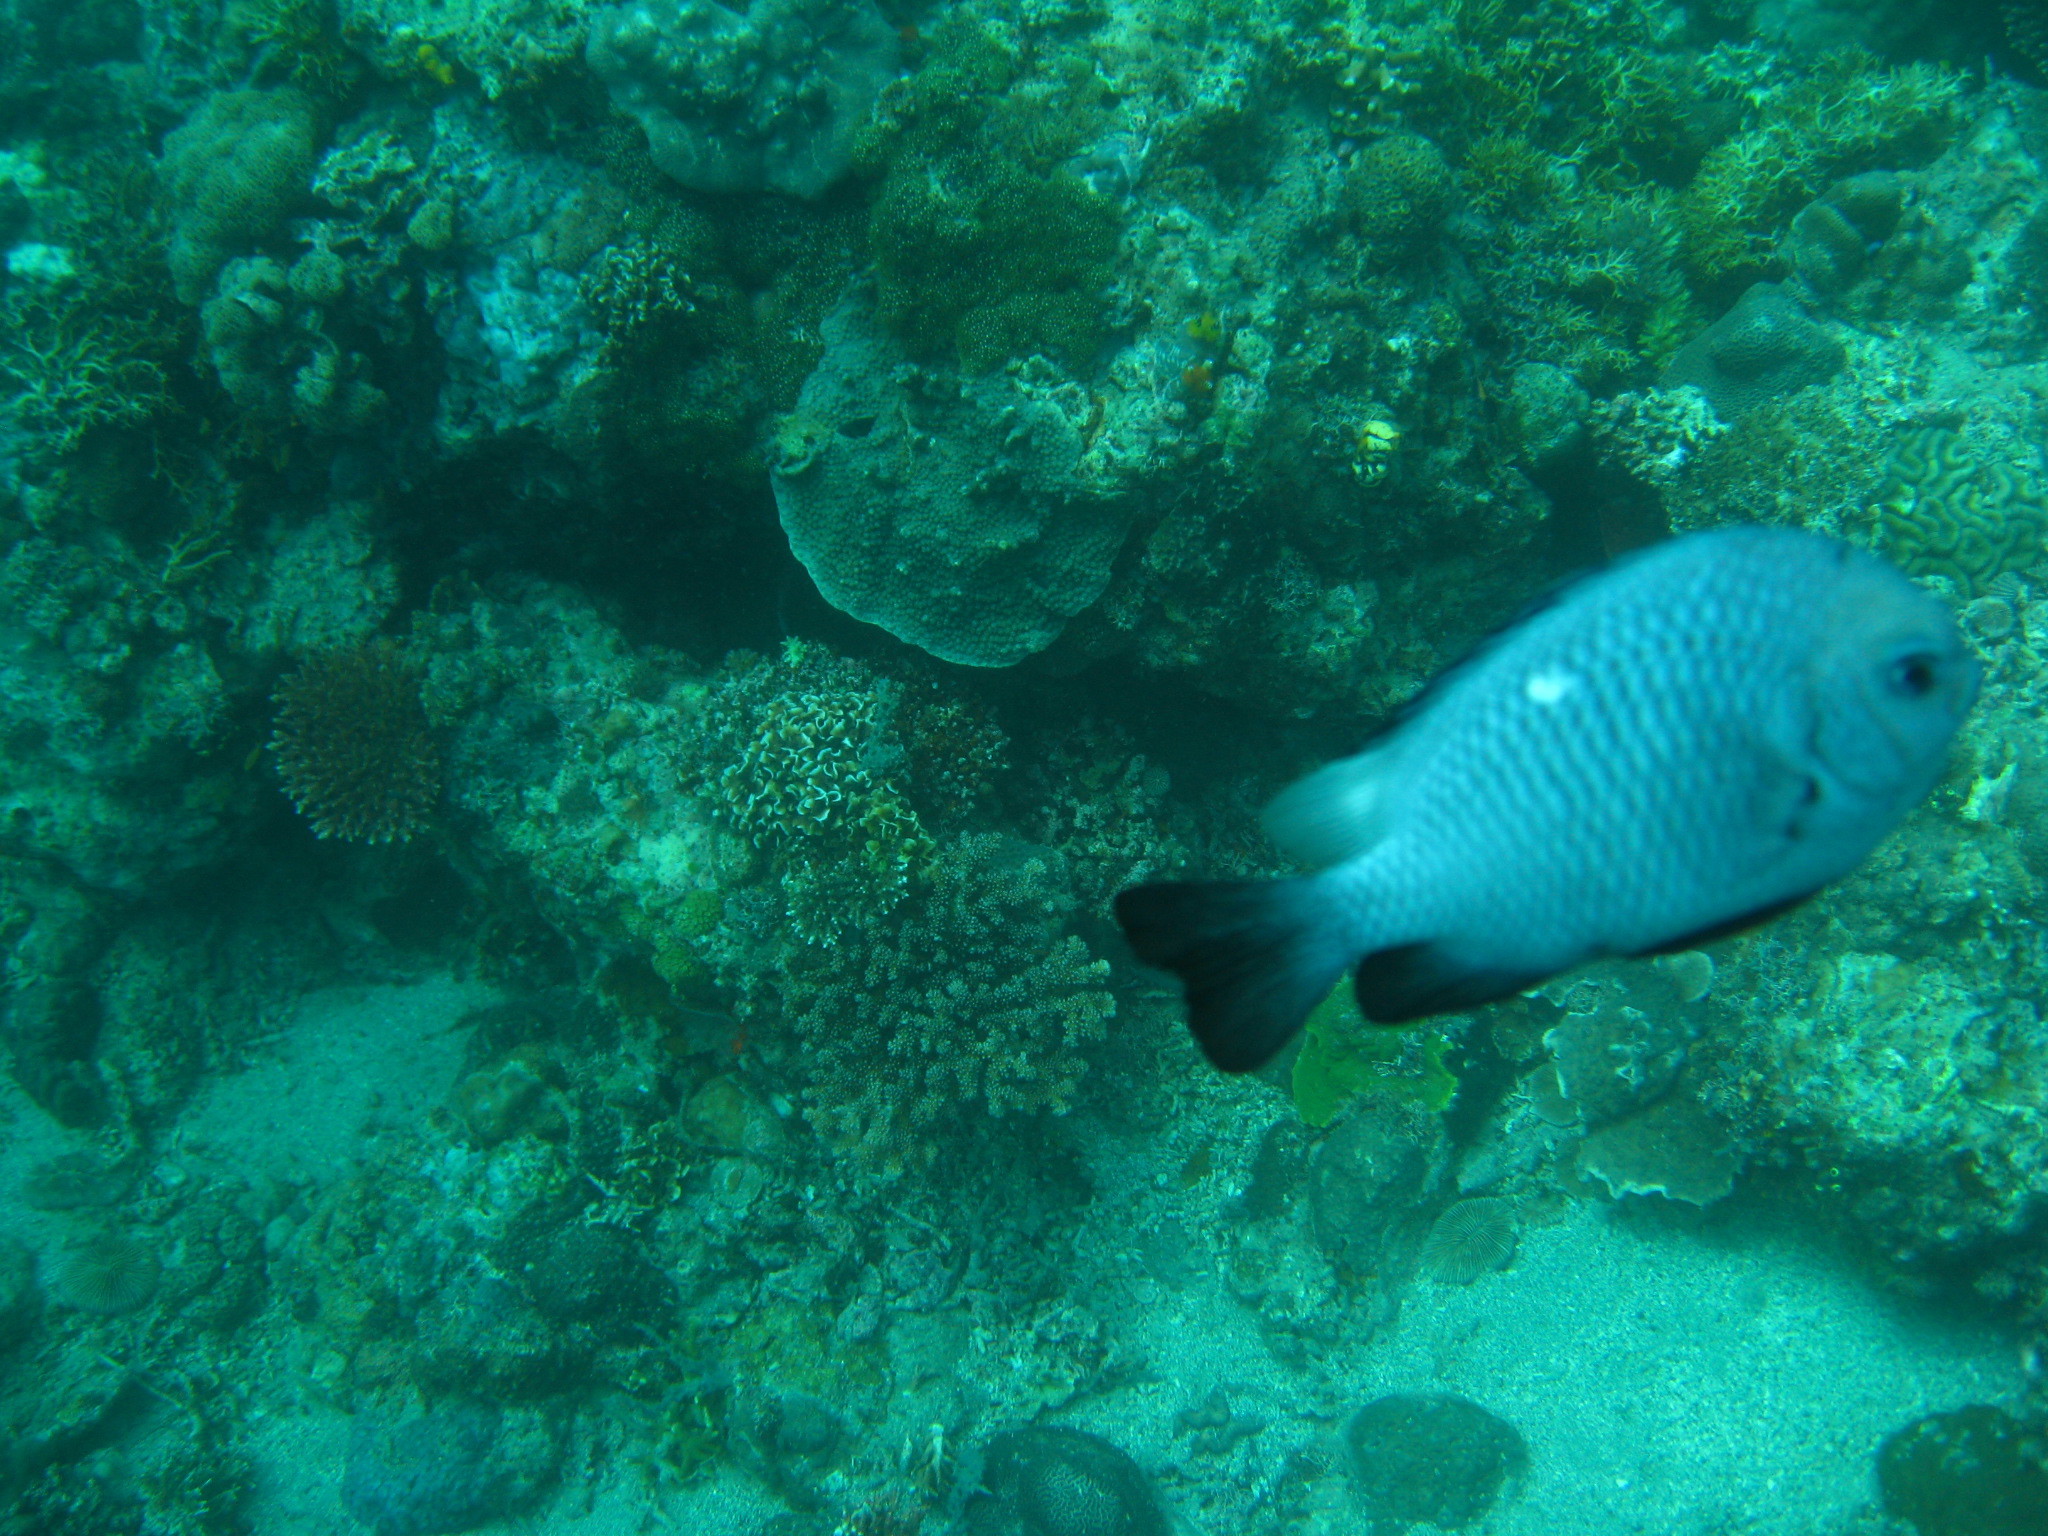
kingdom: Animalia
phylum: Chordata
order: Perciformes
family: Pomacentridae
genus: Dascyllus
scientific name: Dascyllus trimaculatus
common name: Threespot dascyllus
